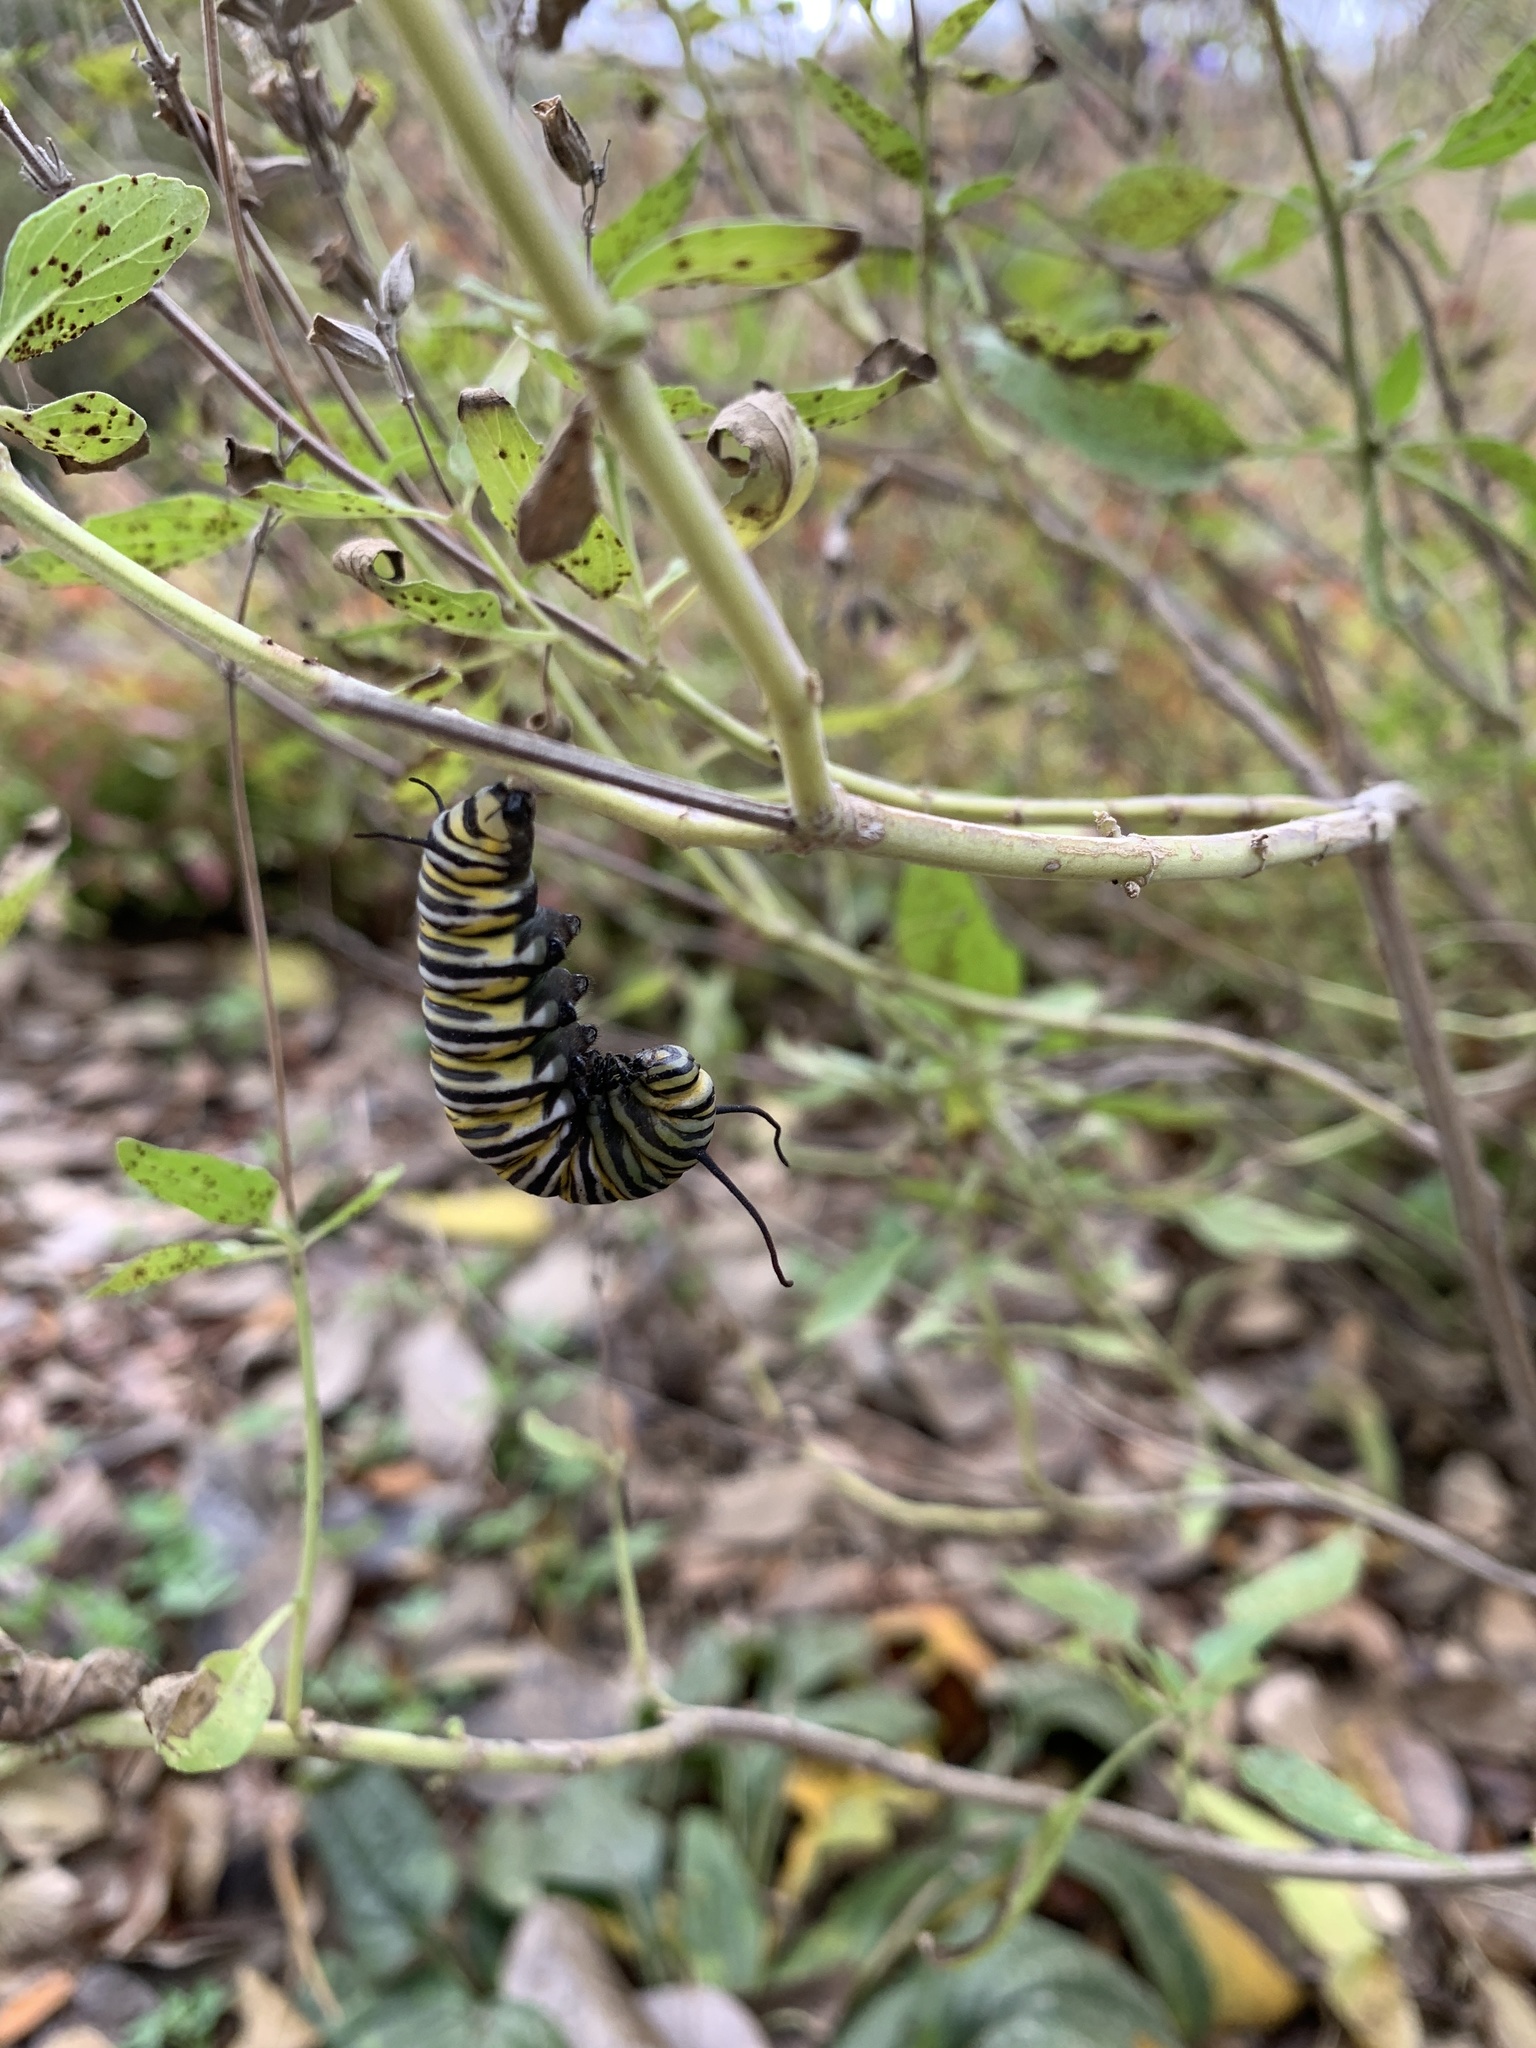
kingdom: Animalia
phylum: Arthropoda
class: Insecta
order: Lepidoptera
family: Nymphalidae
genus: Danaus
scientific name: Danaus plexippus
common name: Monarch
